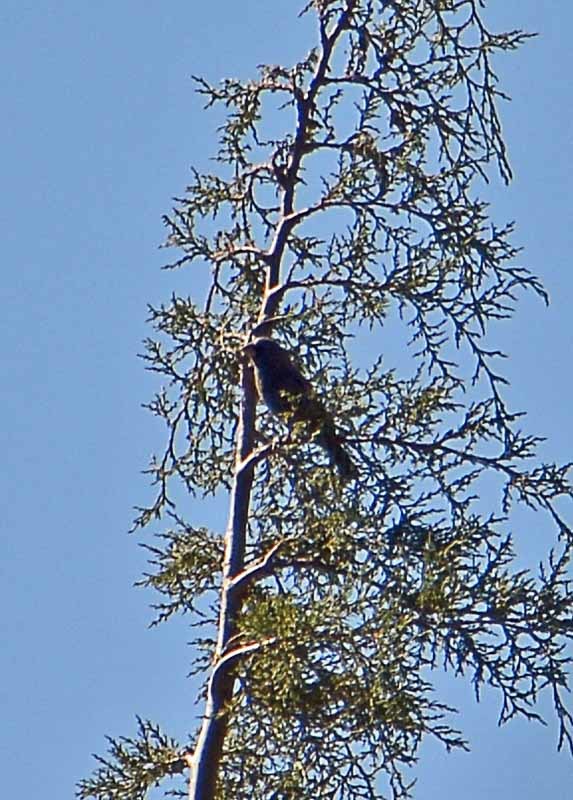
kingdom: Animalia
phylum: Chordata
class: Aves
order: Passeriformes
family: Cardinalidae
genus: Passerina
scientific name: Passerina caerulea
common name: Blue grosbeak
